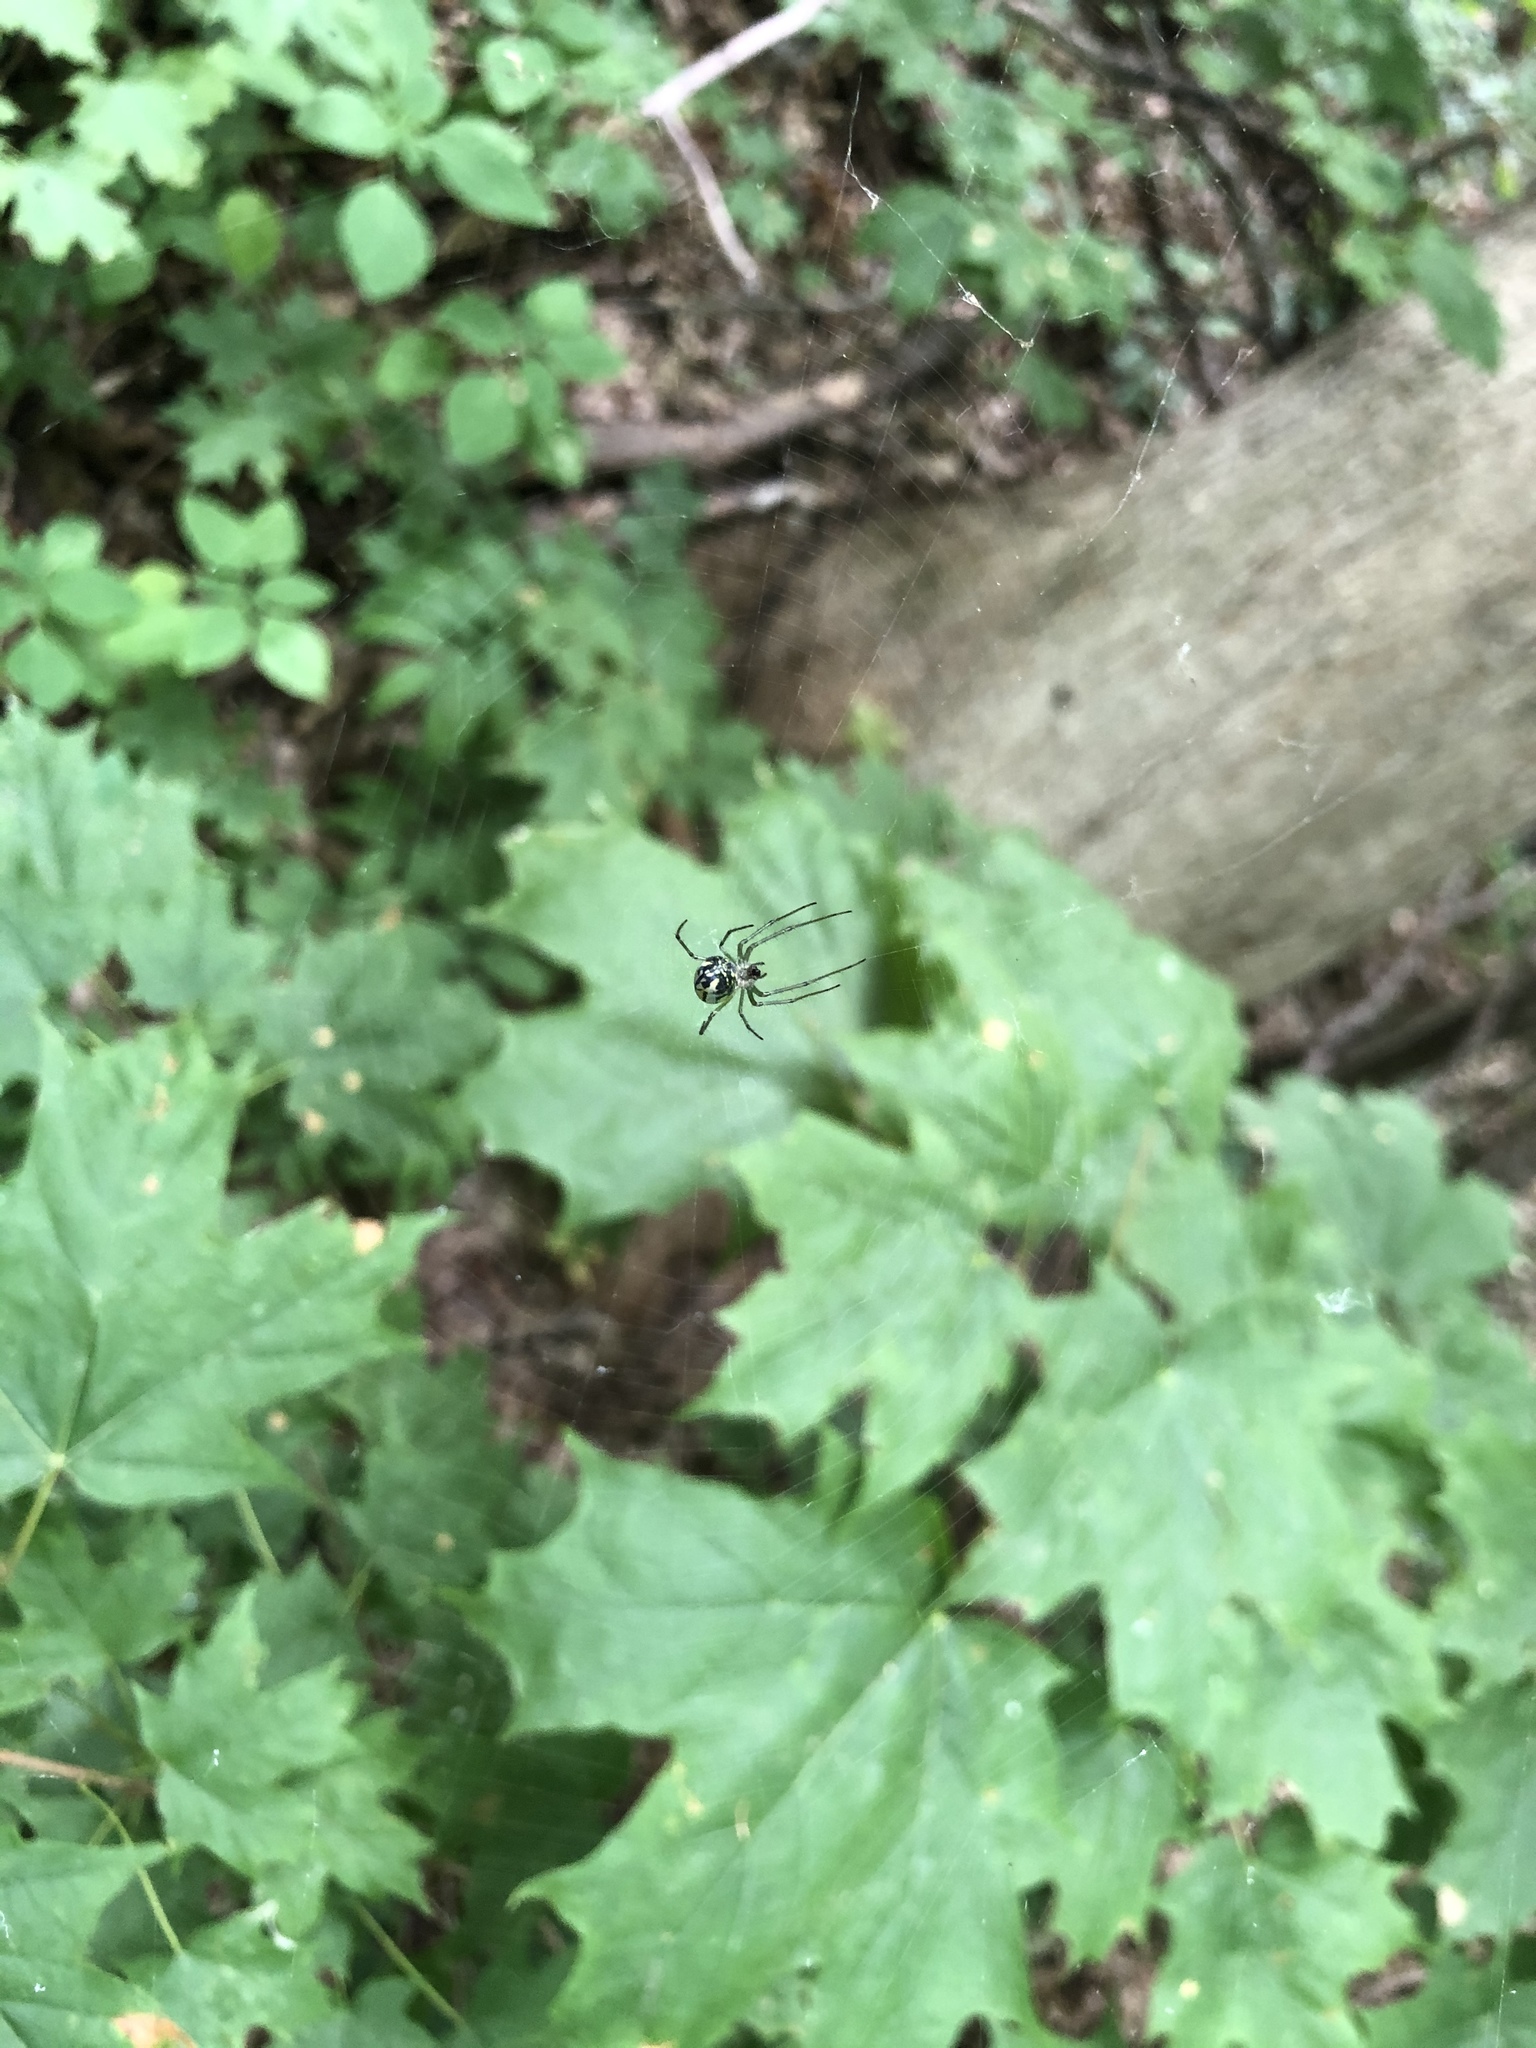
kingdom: Animalia
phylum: Arthropoda
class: Arachnida
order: Araneae
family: Tetragnathidae
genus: Leucauge
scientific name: Leucauge venusta
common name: Longjawed orb weavers
